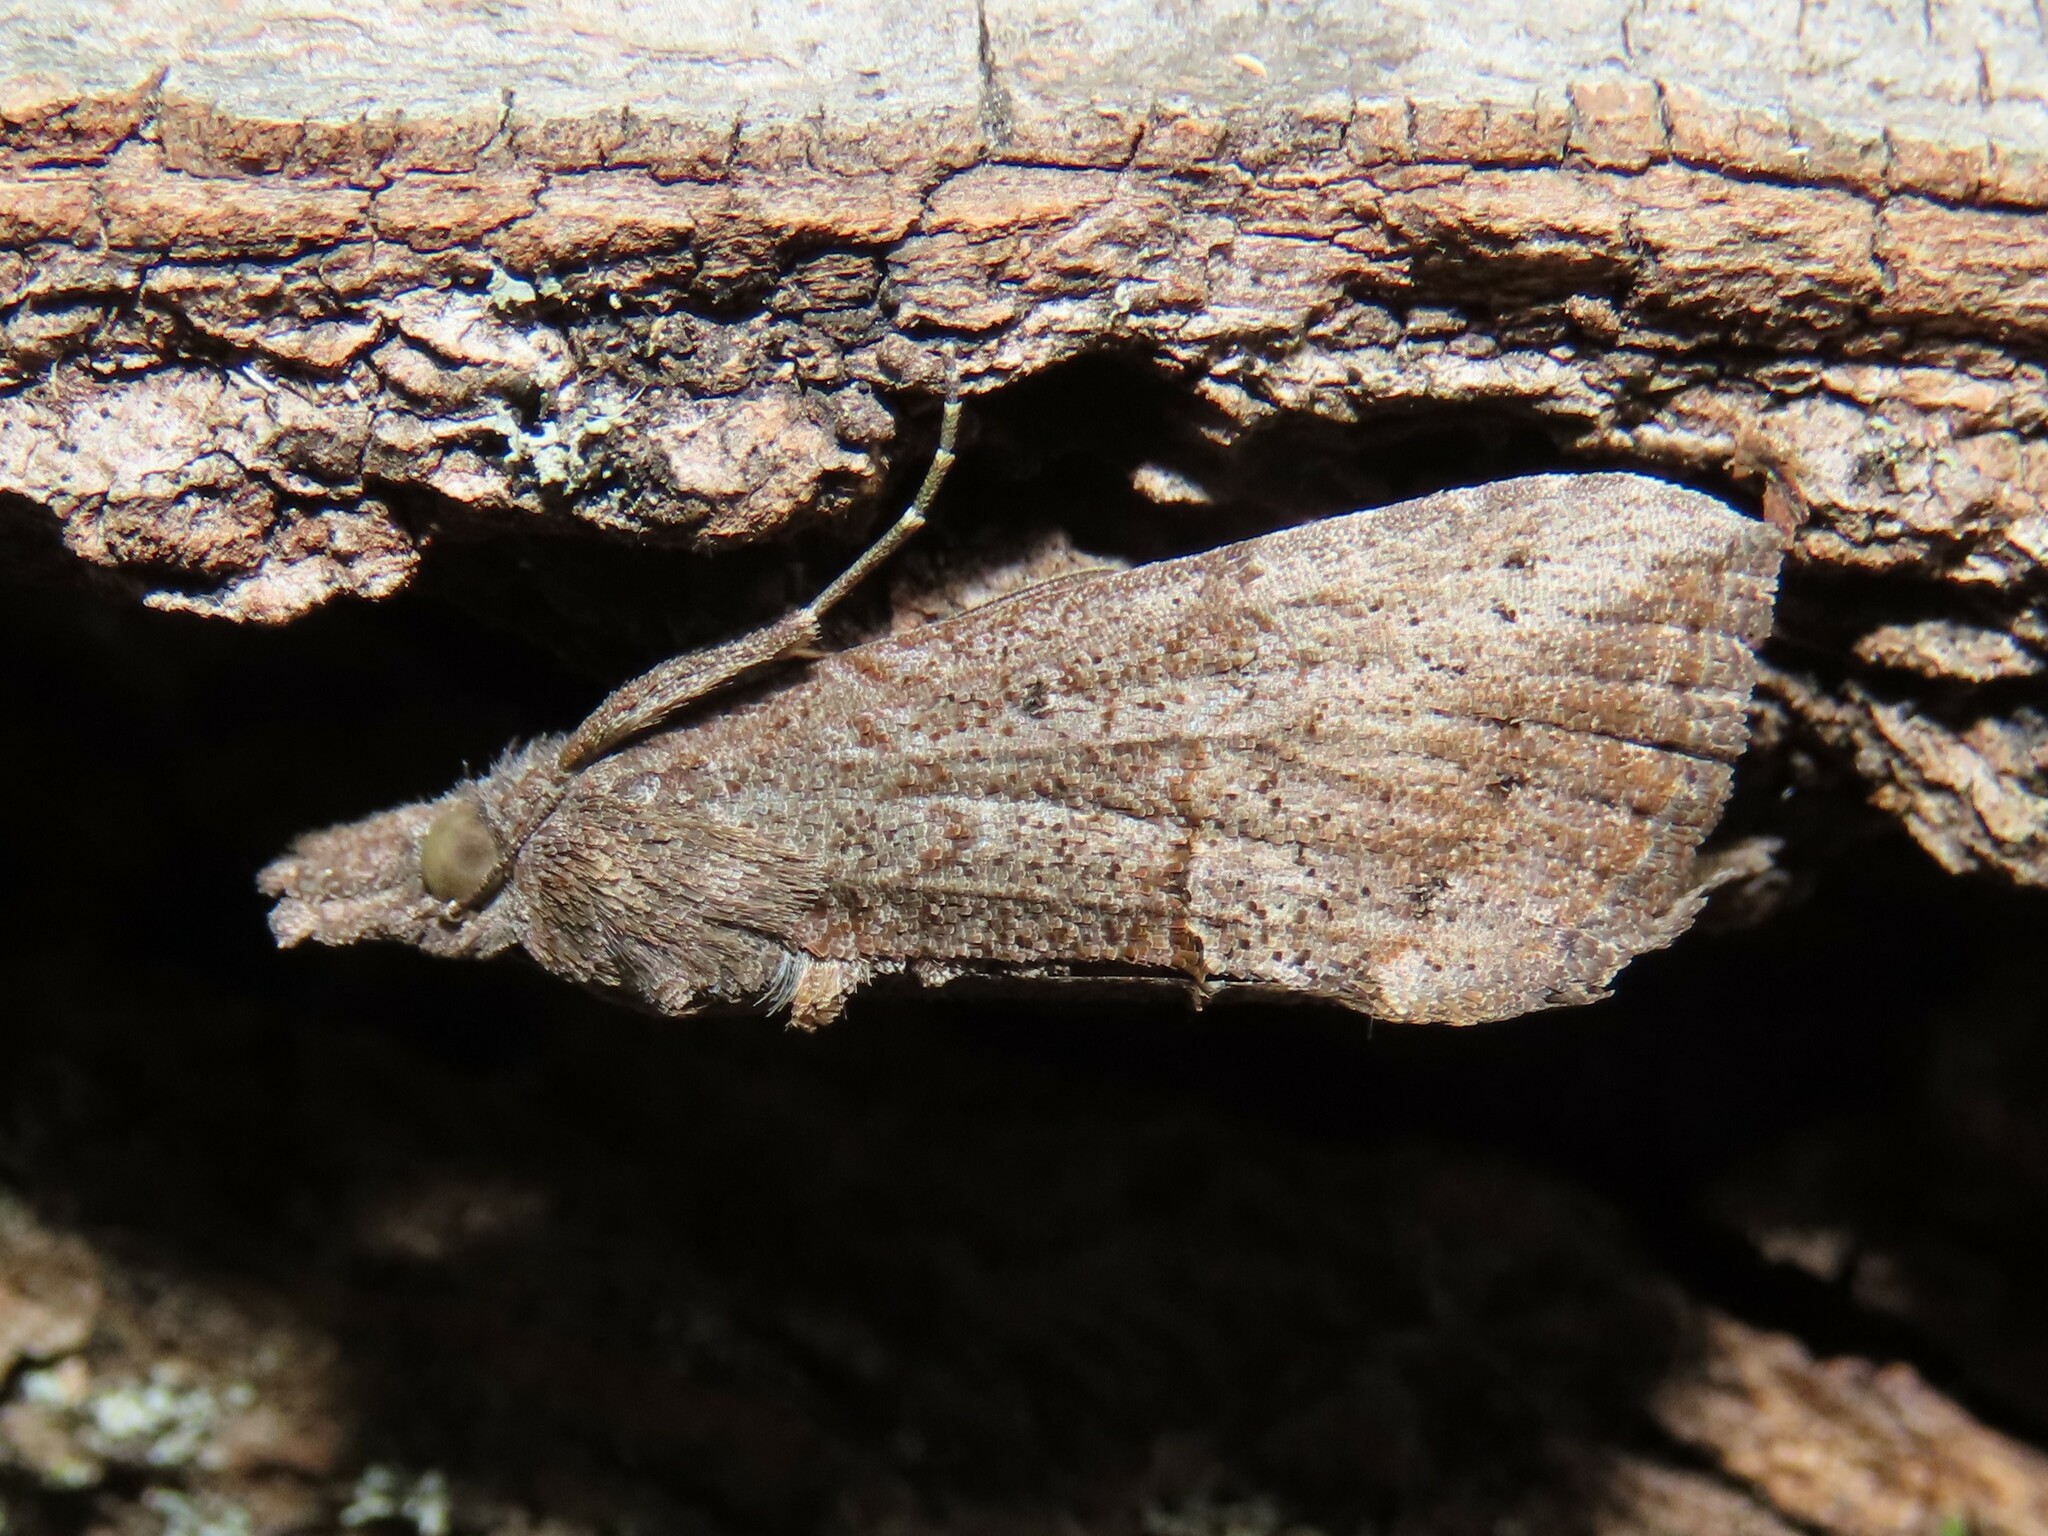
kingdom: Animalia
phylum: Arthropoda
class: Insecta
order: Lepidoptera
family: Erebidae
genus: Hypena
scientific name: Hypena scabra
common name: Green cloverworm
